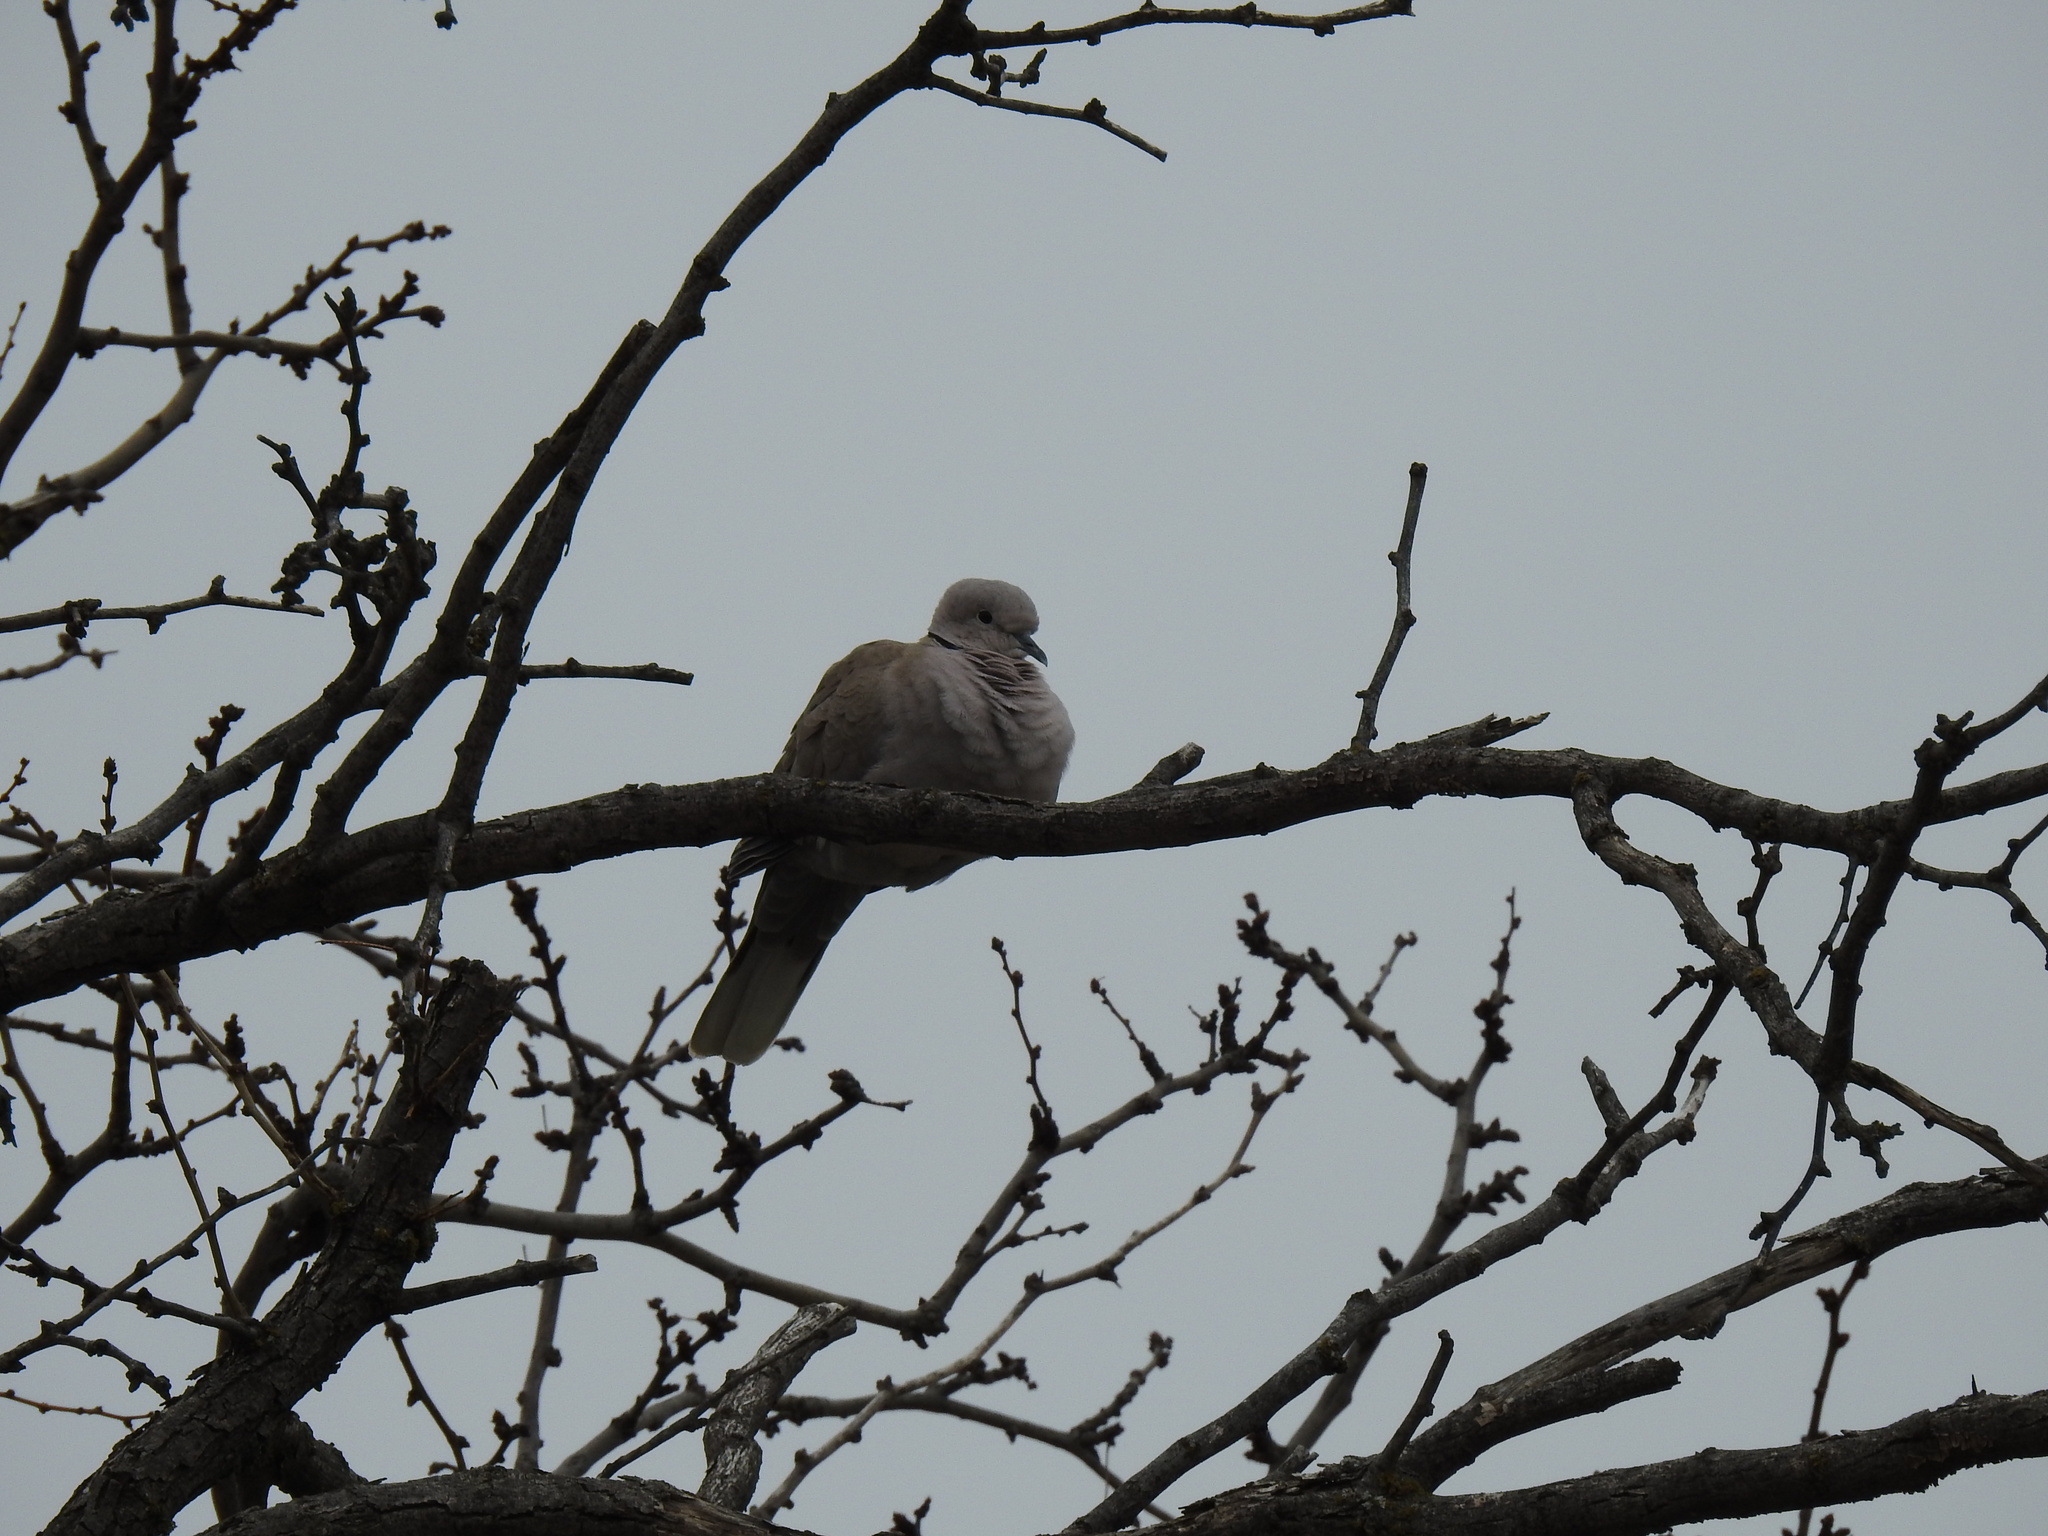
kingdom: Animalia
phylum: Chordata
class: Aves
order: Columbiformes
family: Columbidae
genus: Streptopelia
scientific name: Streptopelia decaocto
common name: Eurasian collared dove
